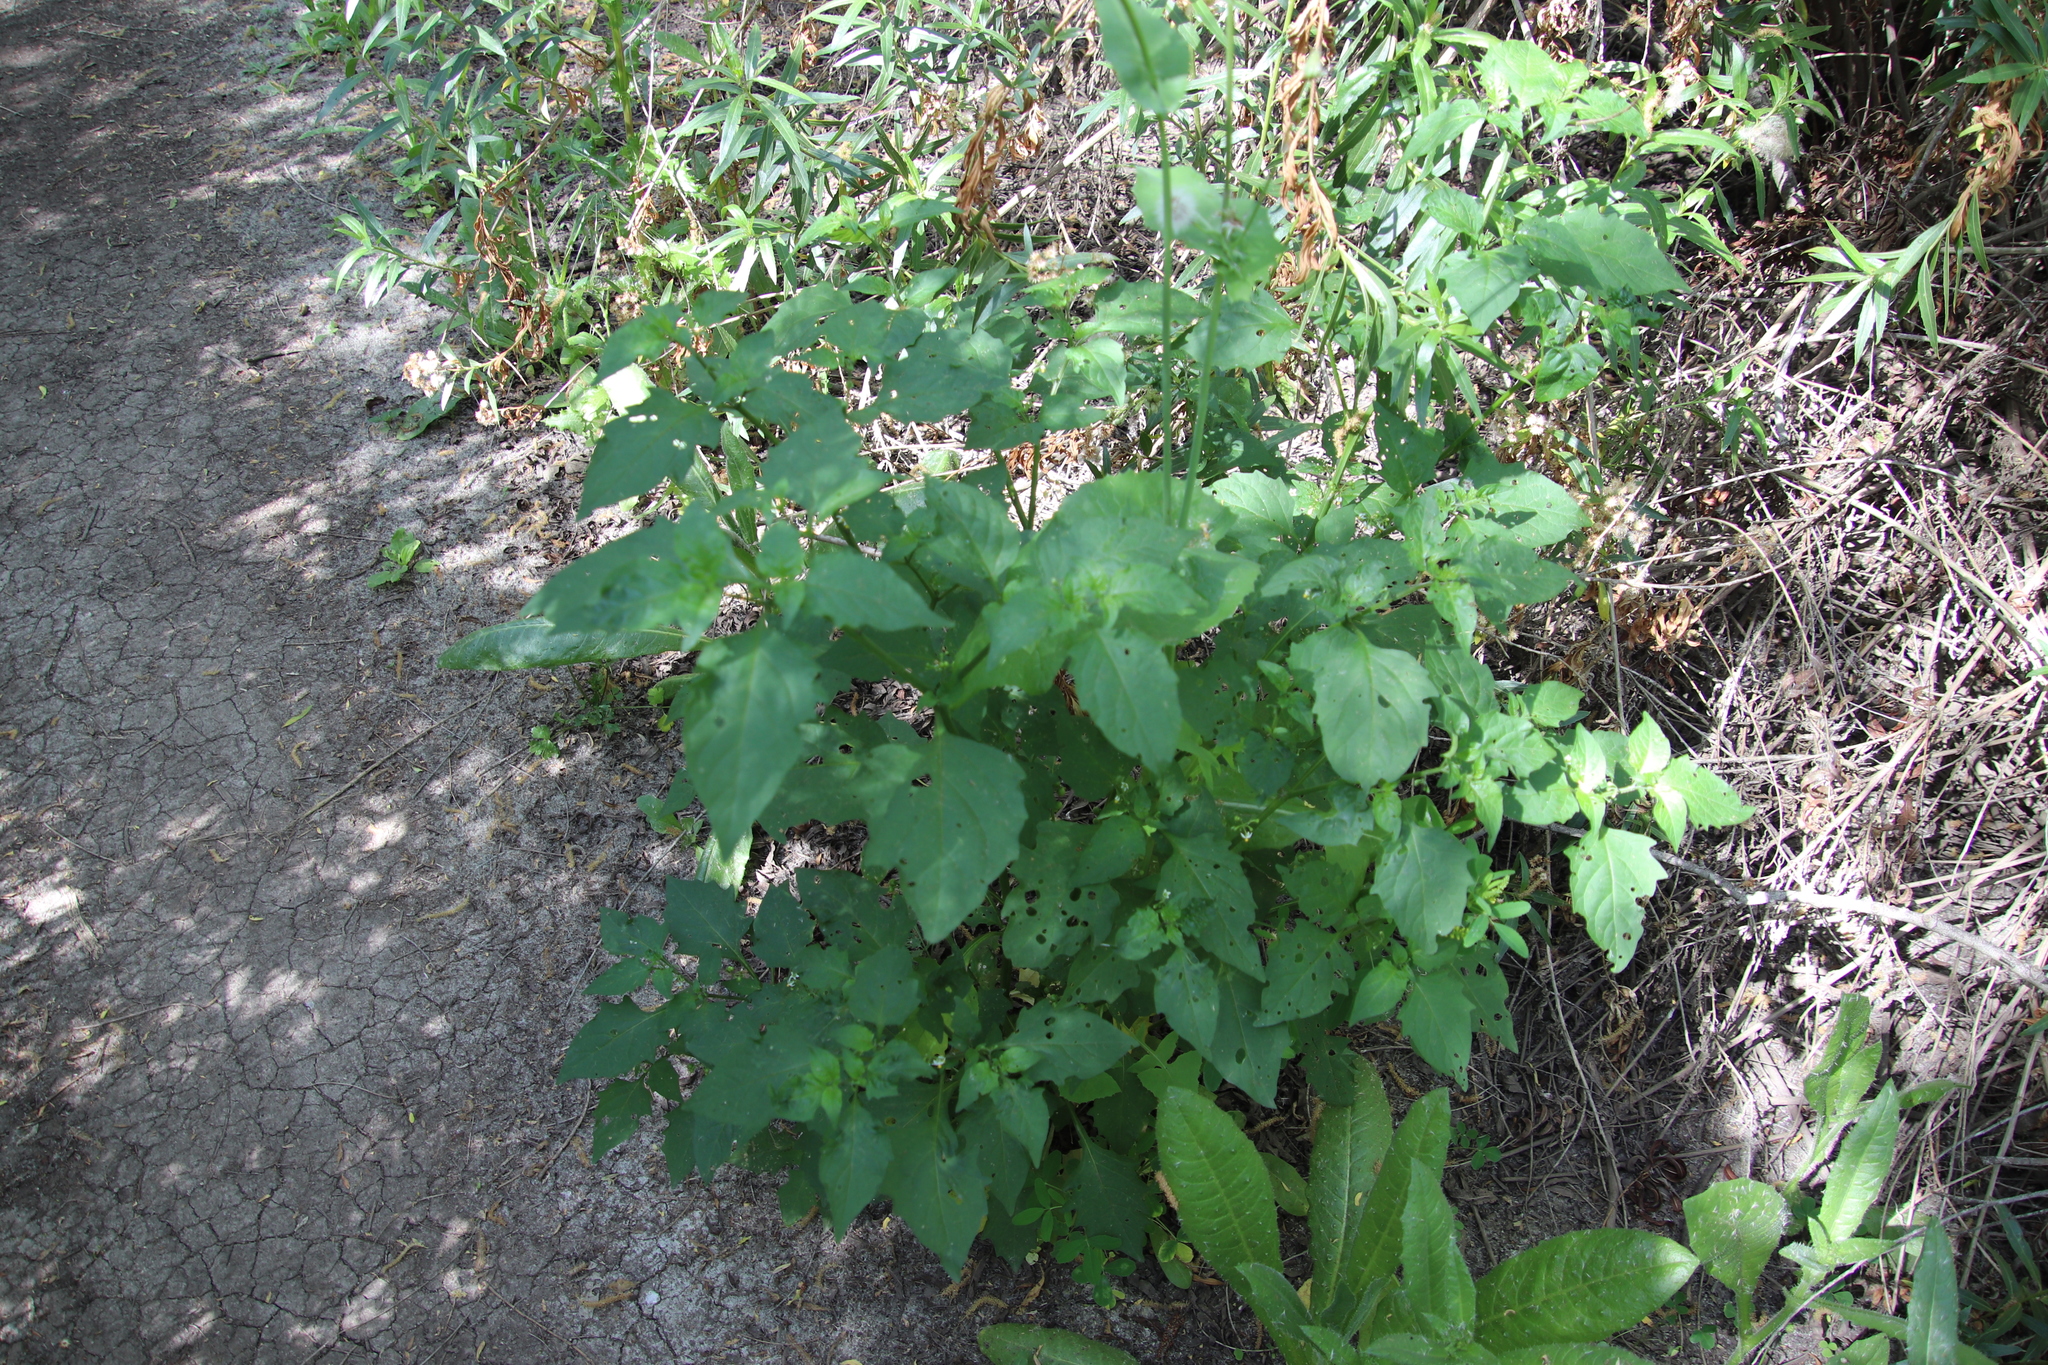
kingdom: Plantae
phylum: Tracheophyta
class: Magnoliopsida
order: Solanales
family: Solanaceae
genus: Solanum
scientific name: Solanum americanum
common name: American black nightshade
